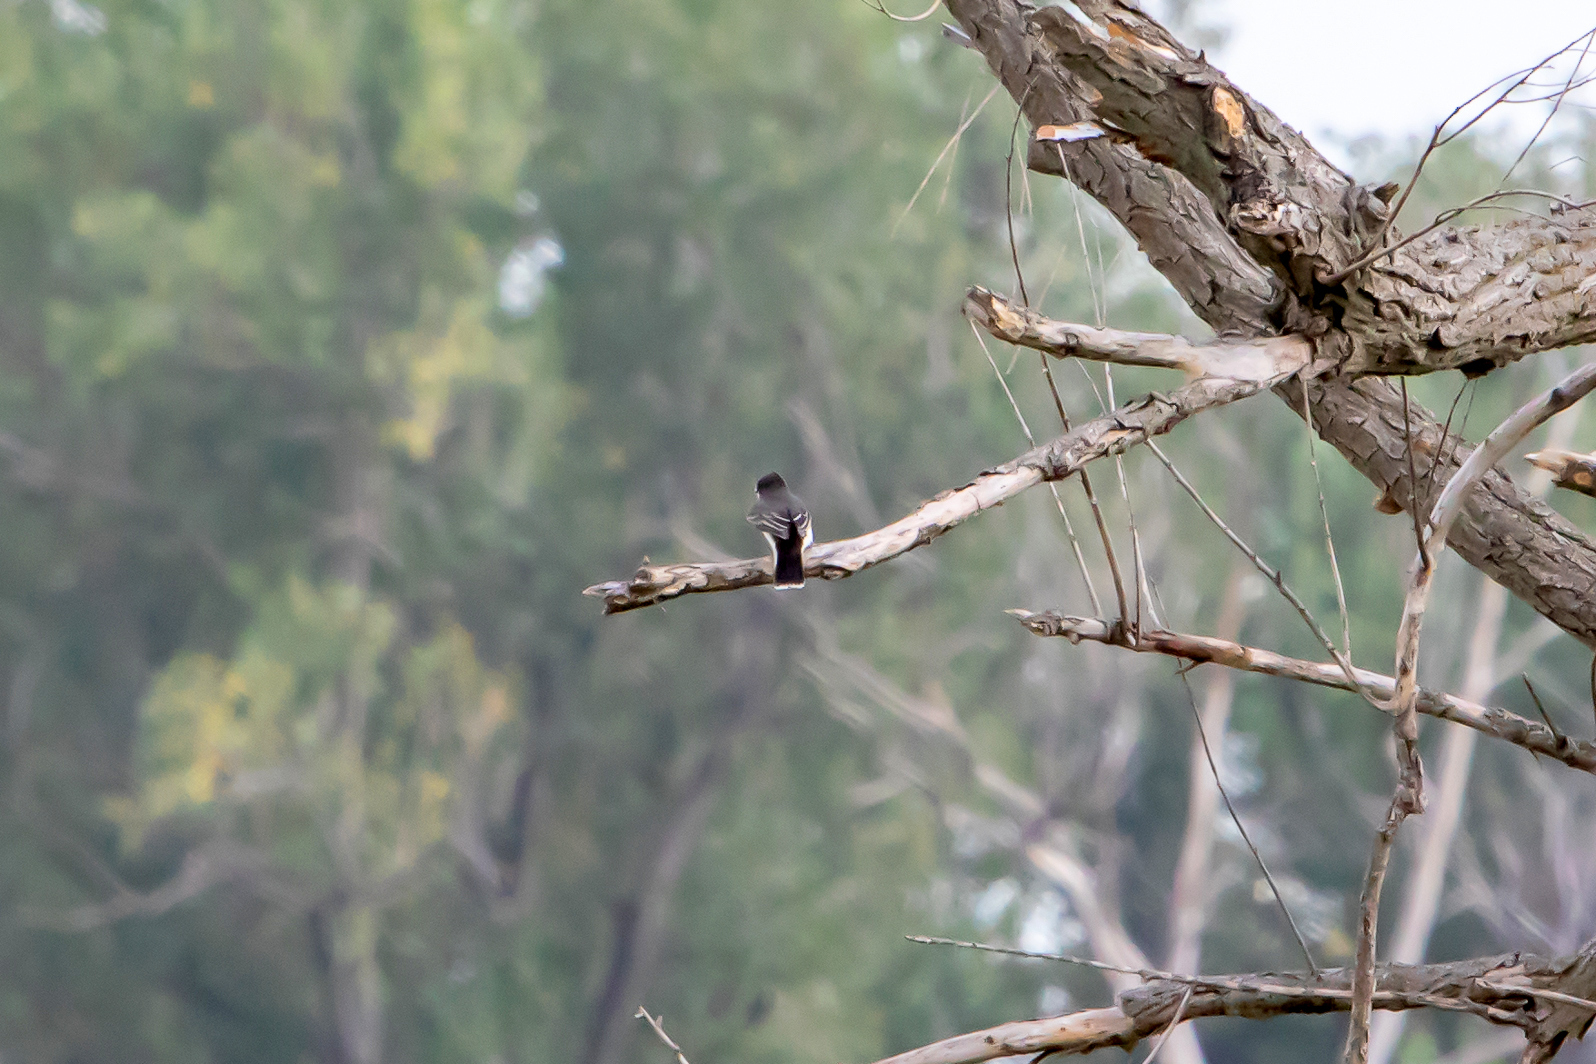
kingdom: Animalia
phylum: Chordata
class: Aves
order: Passeriformes
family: Tyrannidae
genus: Tyrannus
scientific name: Tyrannus tyrannus
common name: Eastern kingbird
